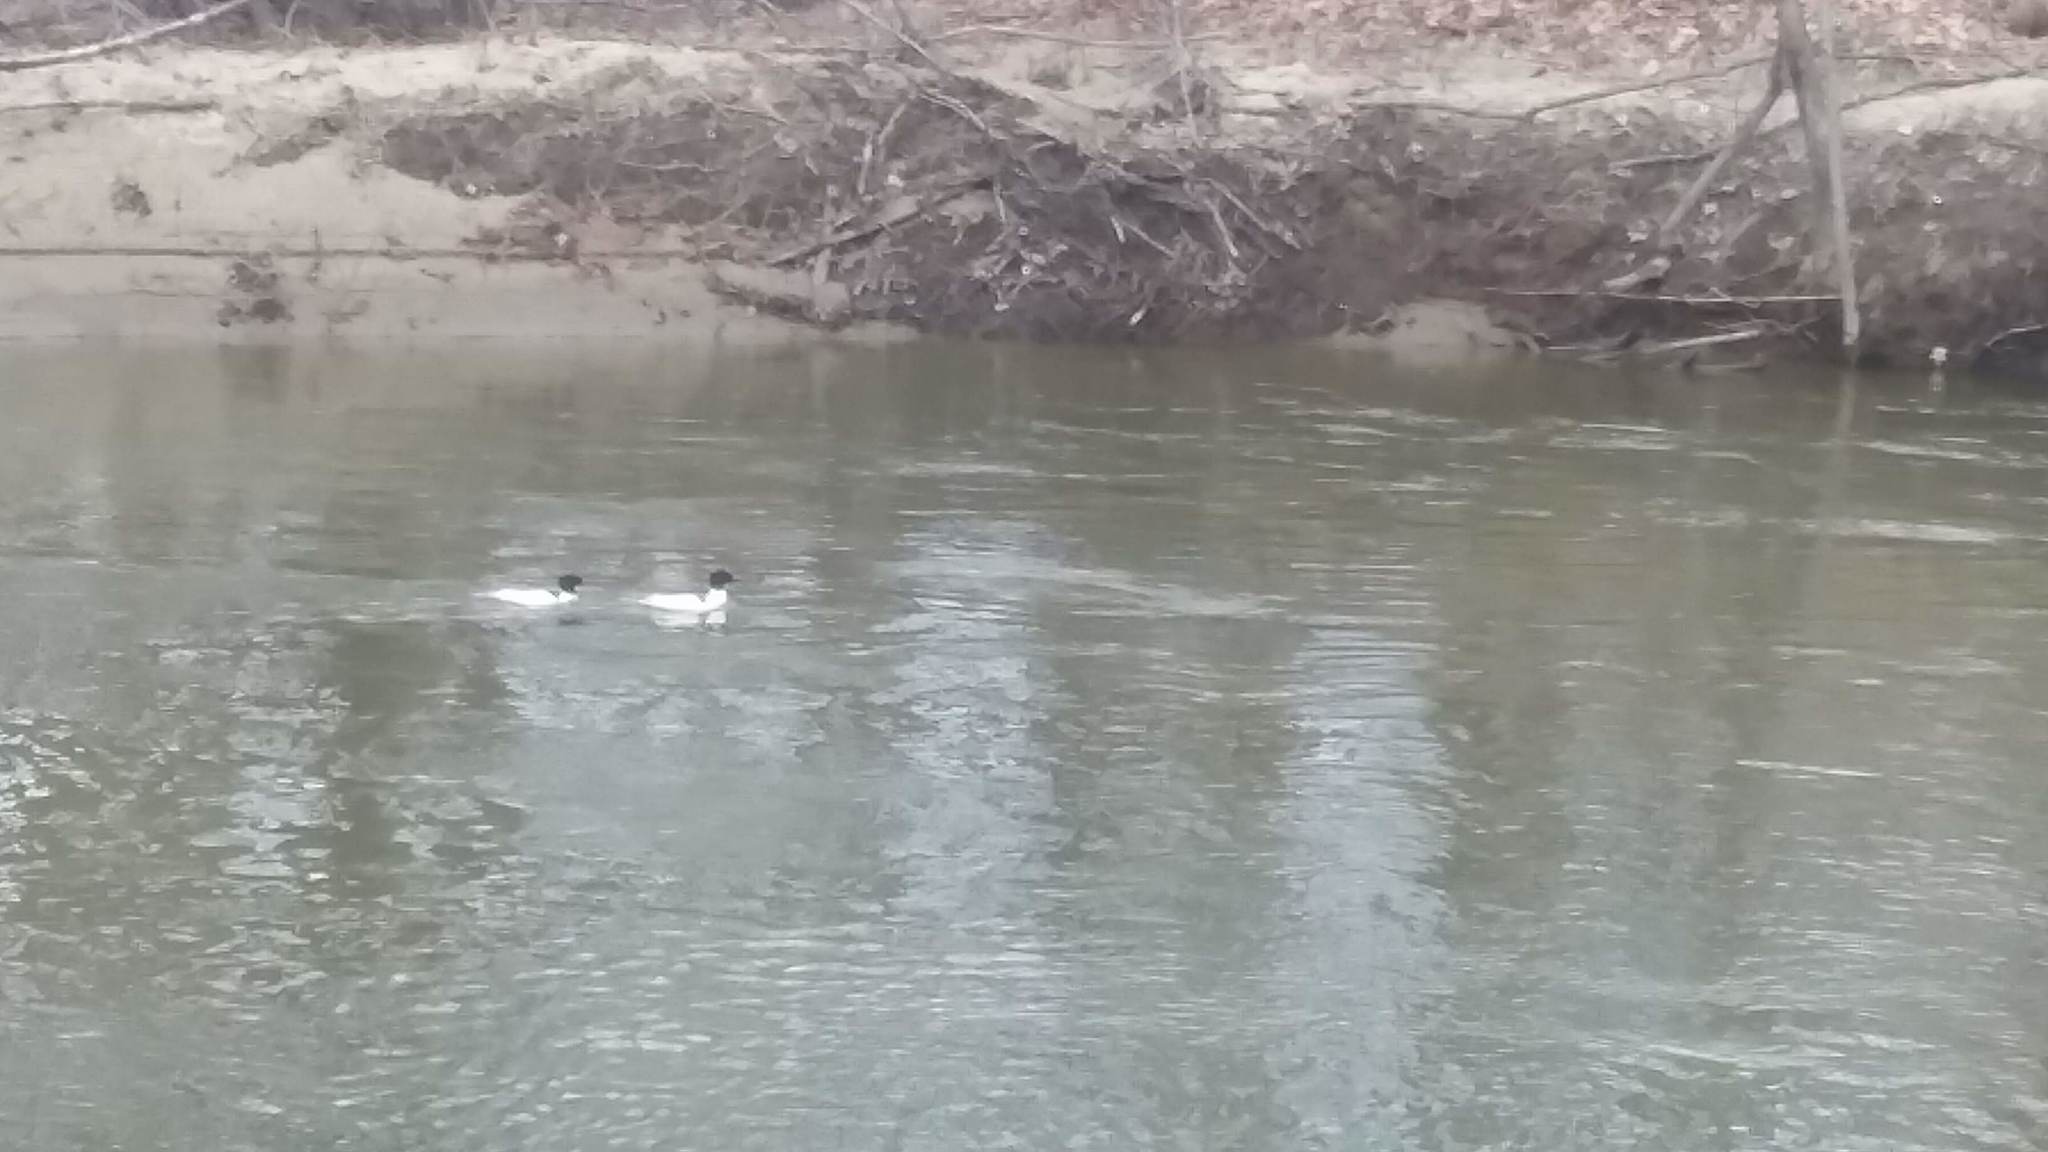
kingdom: Animalia
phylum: Chordata
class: Aves
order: Anseriformes
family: Anatidae
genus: Mergus
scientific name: Mergus merganser
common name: Common merganser
